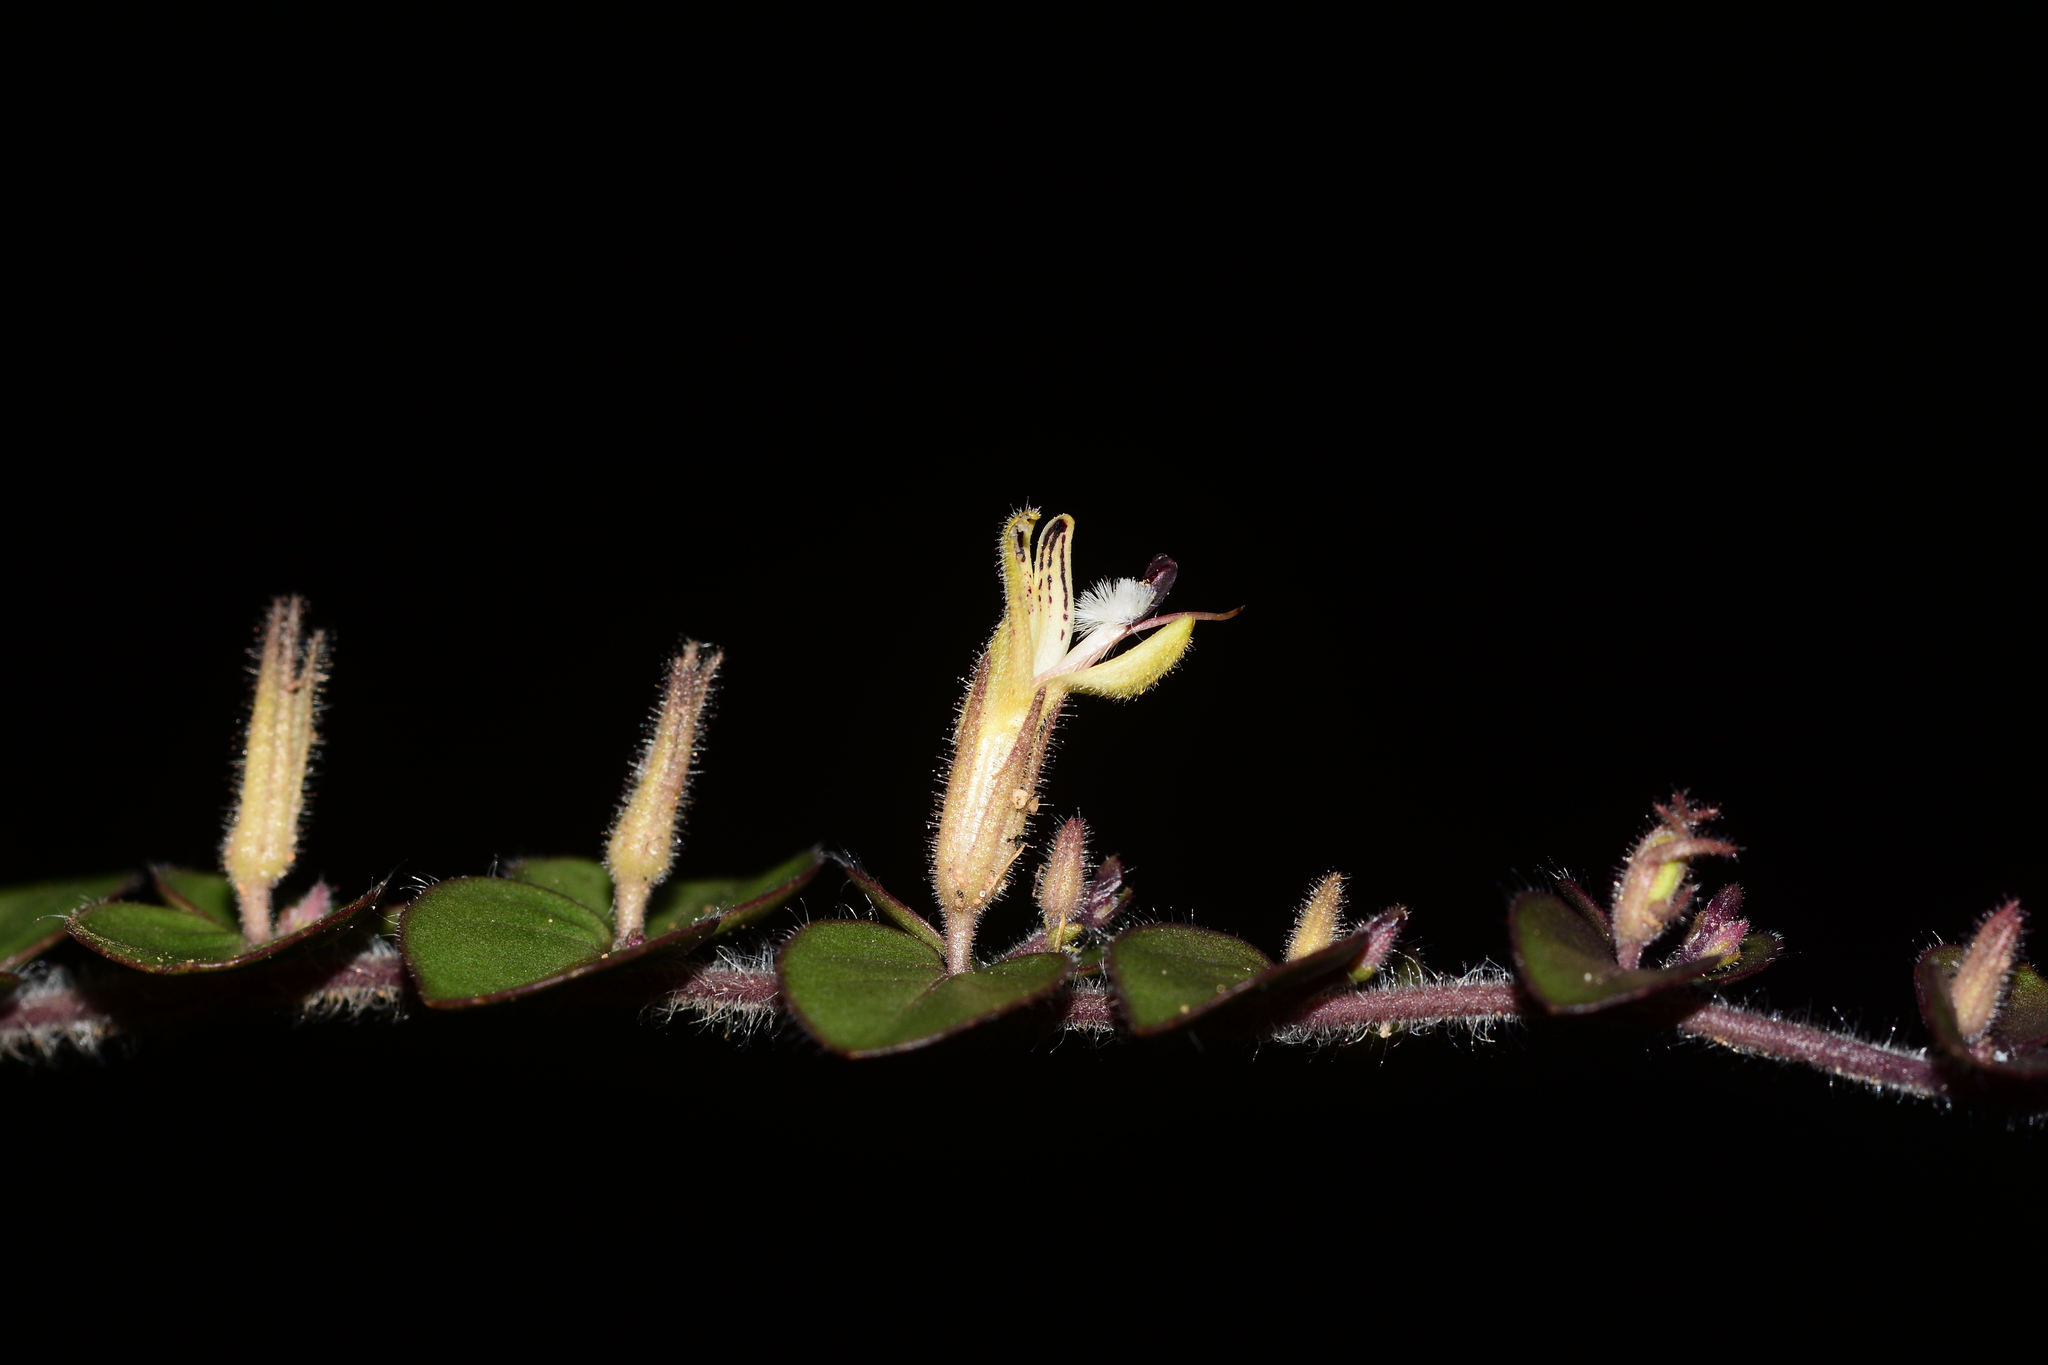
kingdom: Plantae
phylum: Tracheophyta
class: Magnoliopsida
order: Lamiales
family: Acanthaceae
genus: Andrographis
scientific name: Andrographis serpyllifolia
